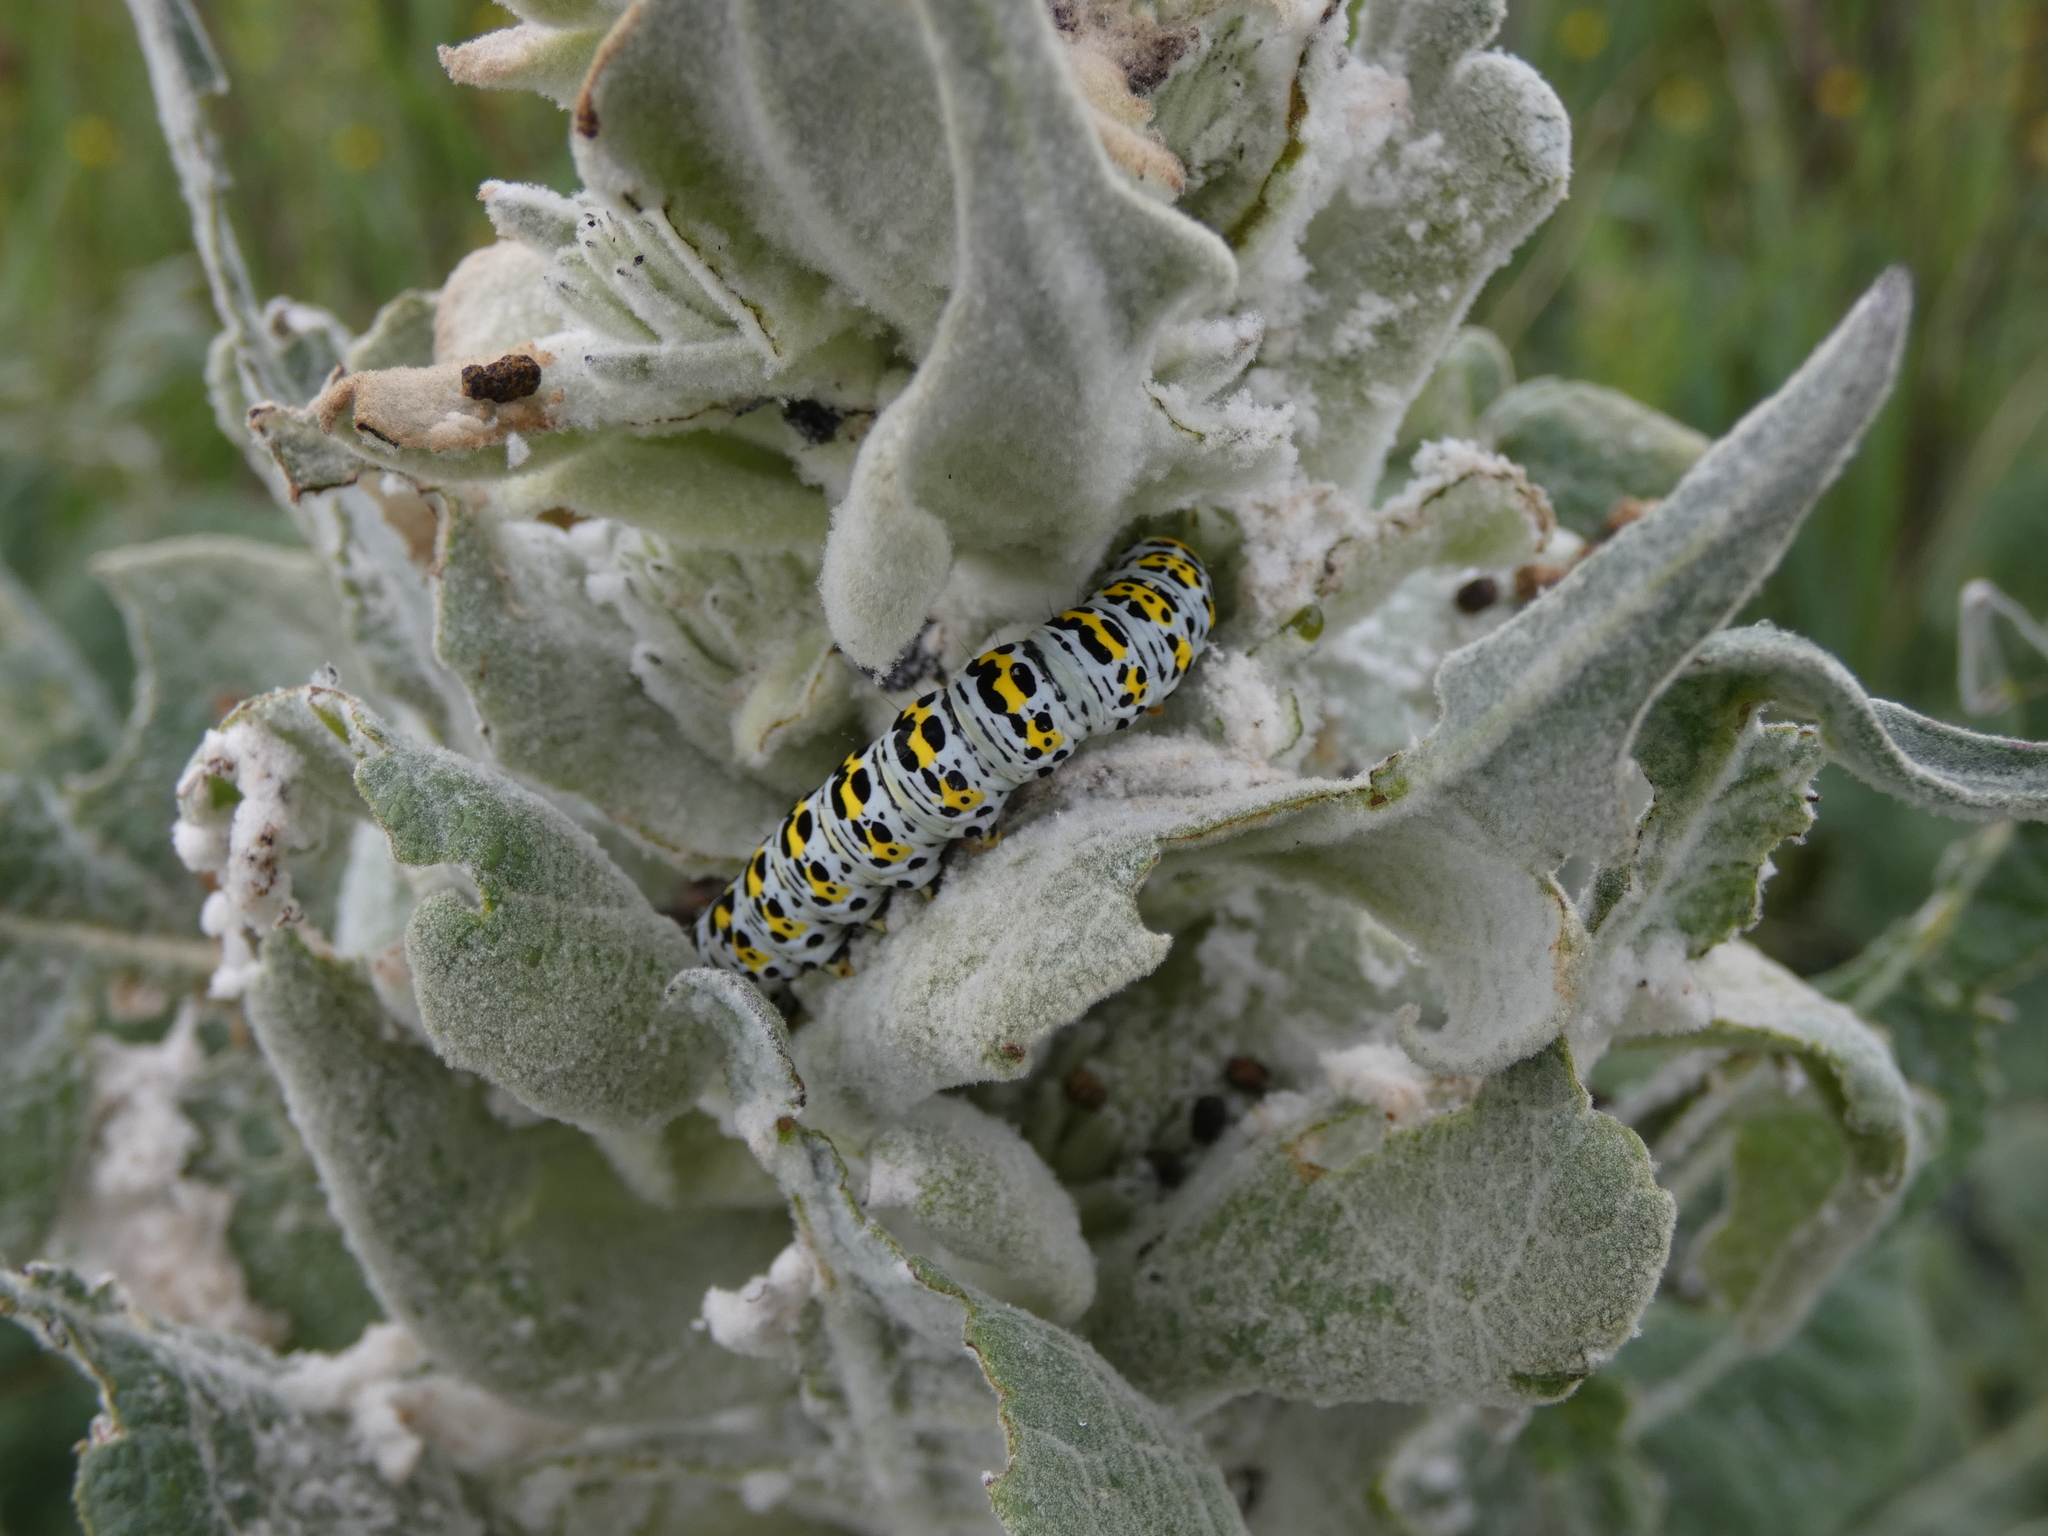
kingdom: Animalia
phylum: Arthropoda
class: Insecta
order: Lepidoptera
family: Noctuidae
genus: Cucullia
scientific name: Cucullia verbasci
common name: Mullein
